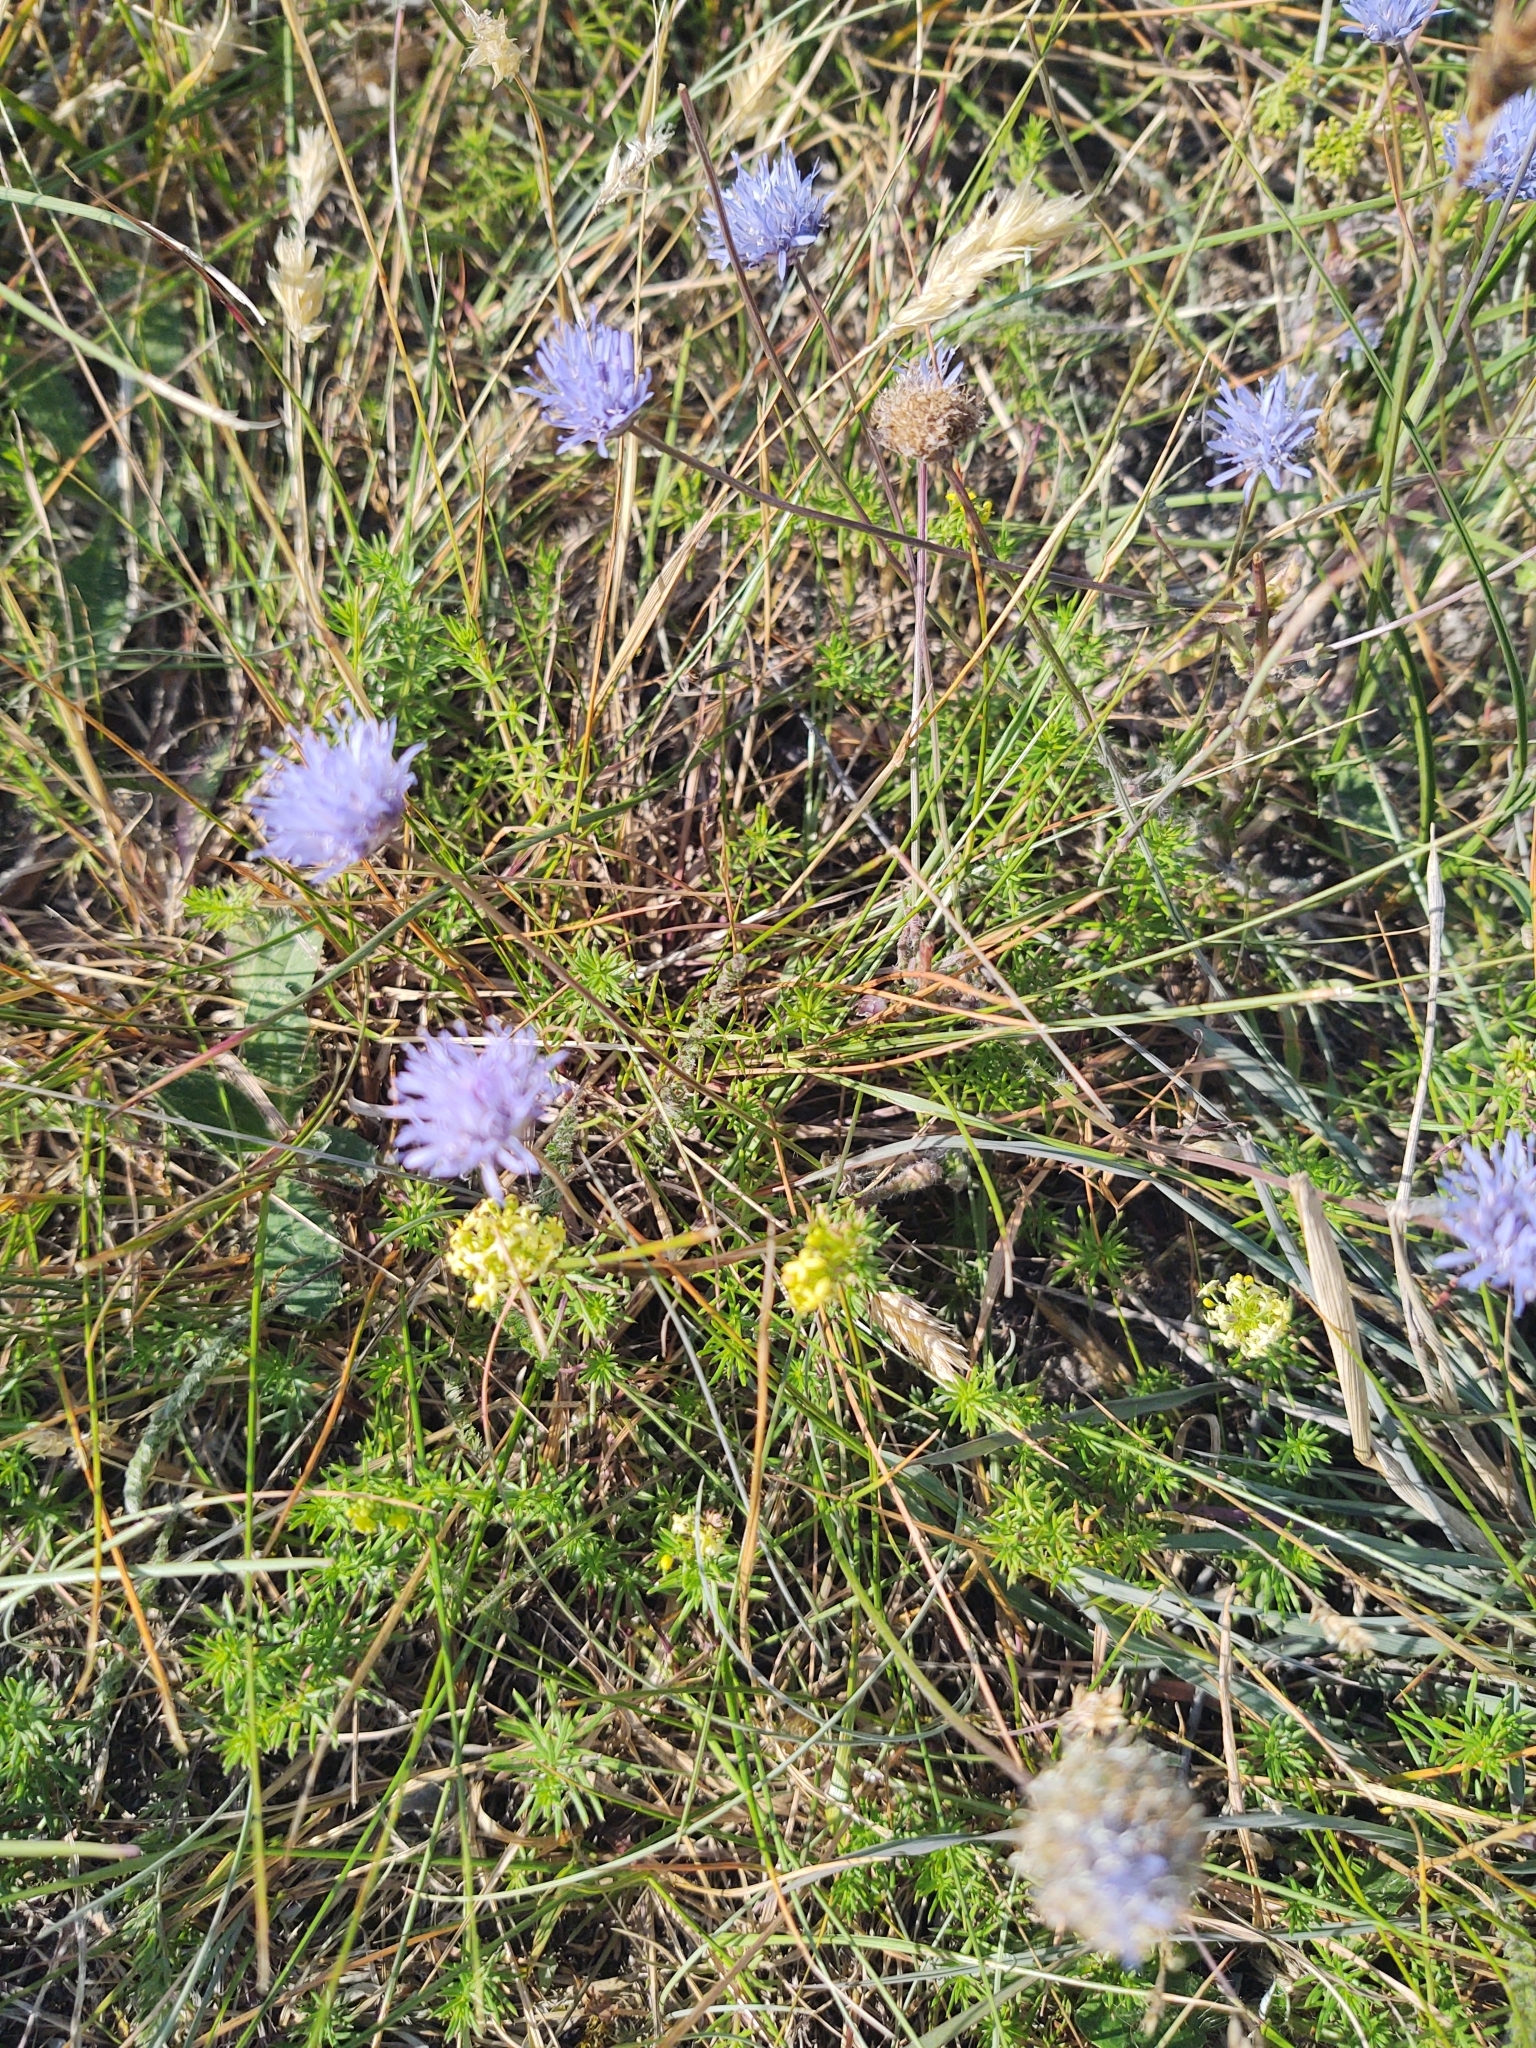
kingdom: Plantae
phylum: Tracheophyta
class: Magnoliopsida
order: Asterales
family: Campanulaceae
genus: Jasione
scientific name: Jasione montana
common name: Sheep's-bit
